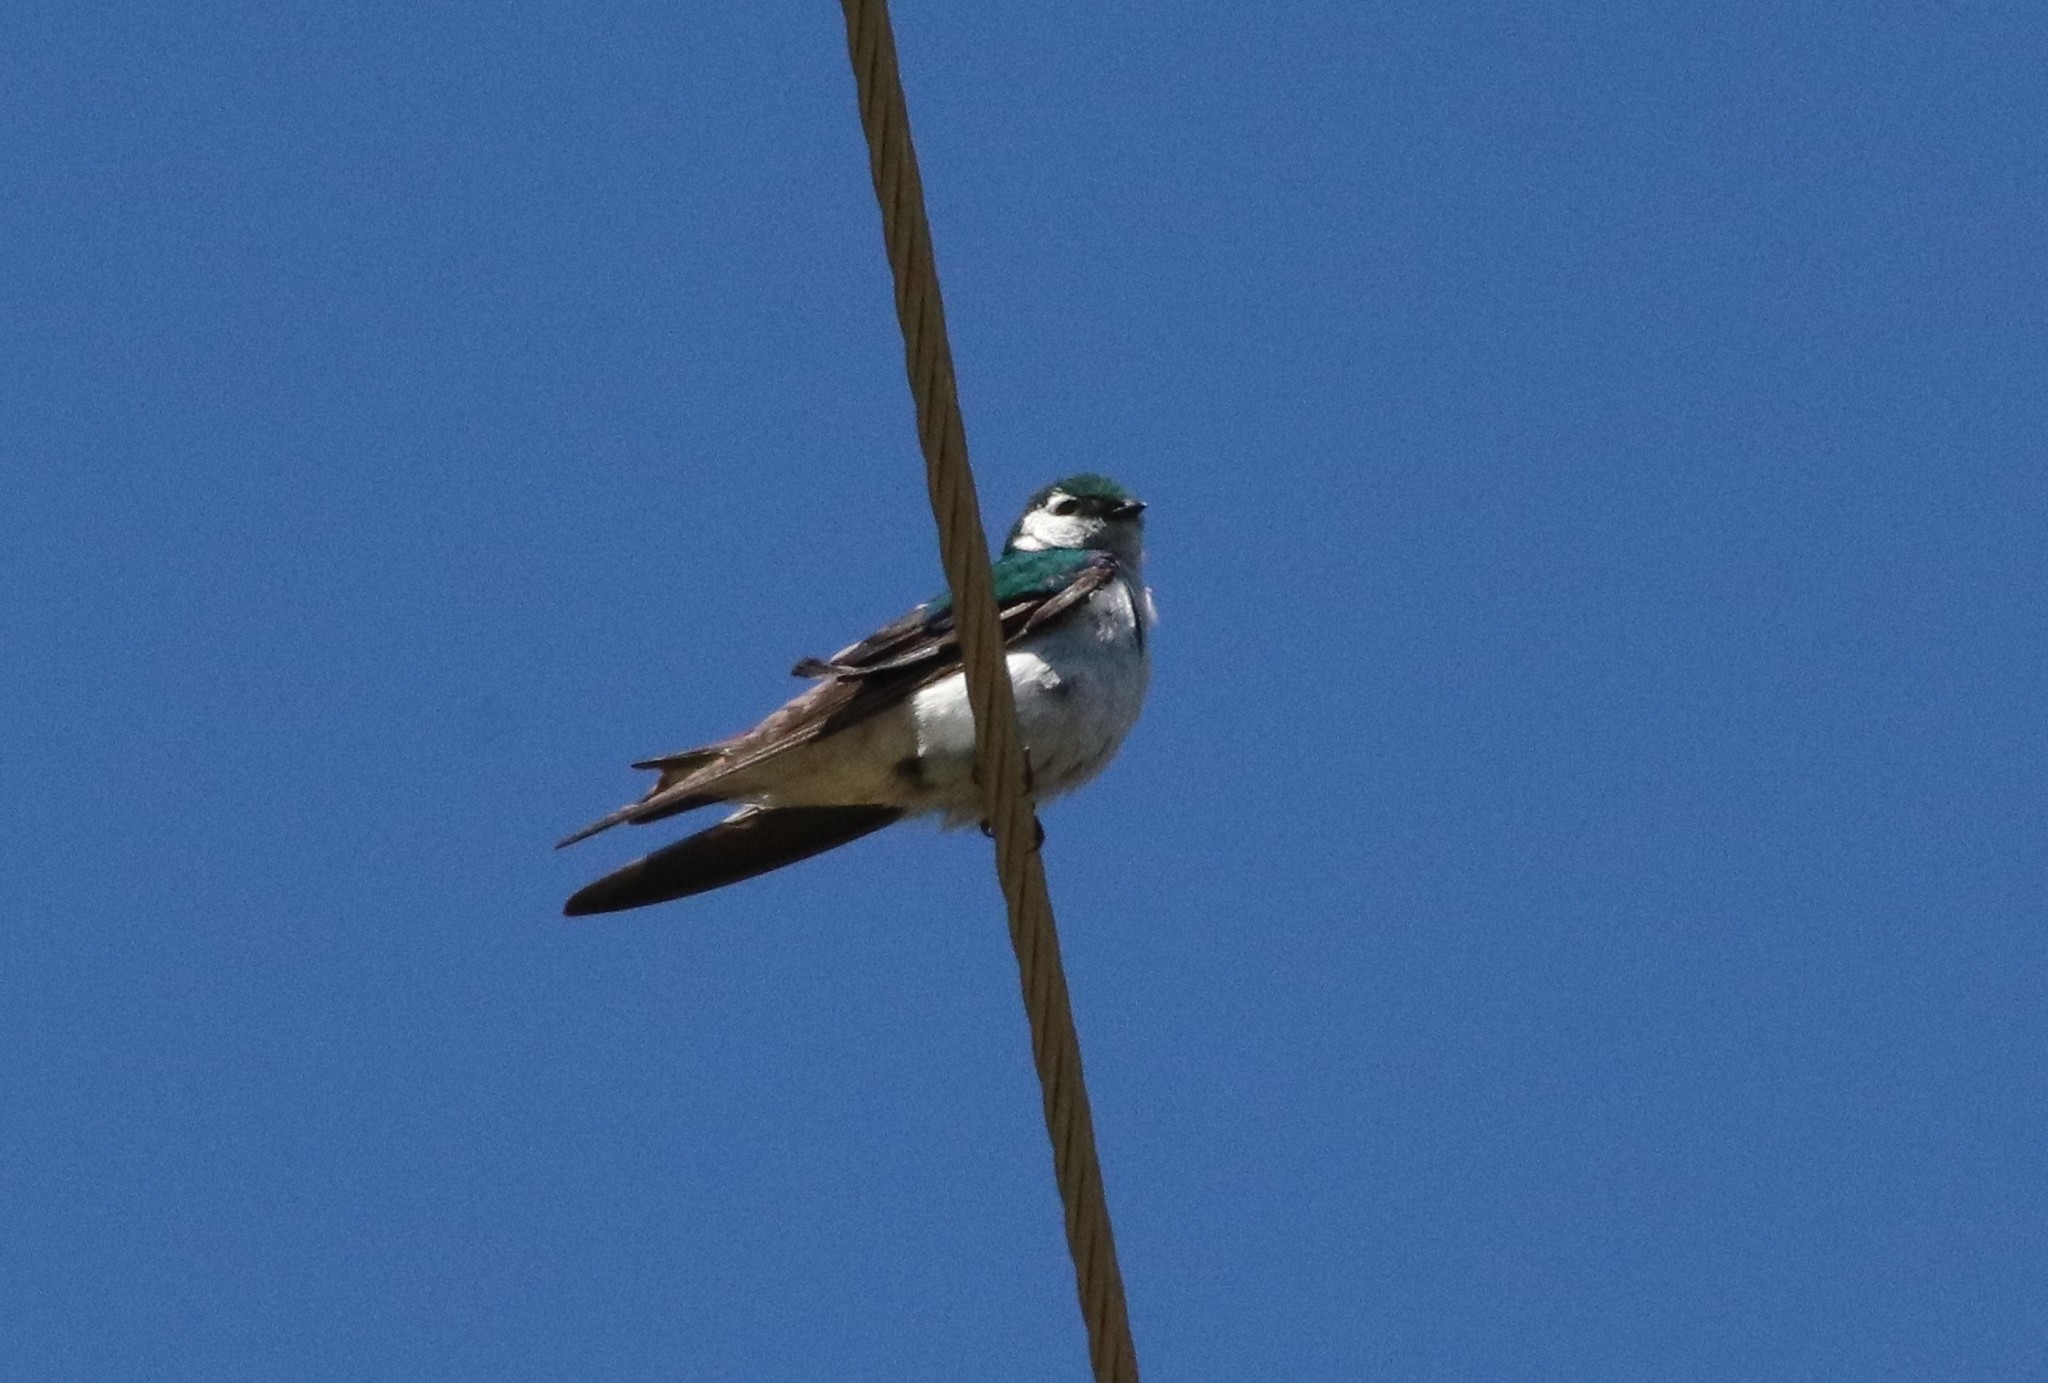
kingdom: Animalia
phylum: Chordata
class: Aves
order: Passeriformes
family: Hirundinidae
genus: Tachycineta
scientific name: Tachycineta thalassina
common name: Violet-green swallow
